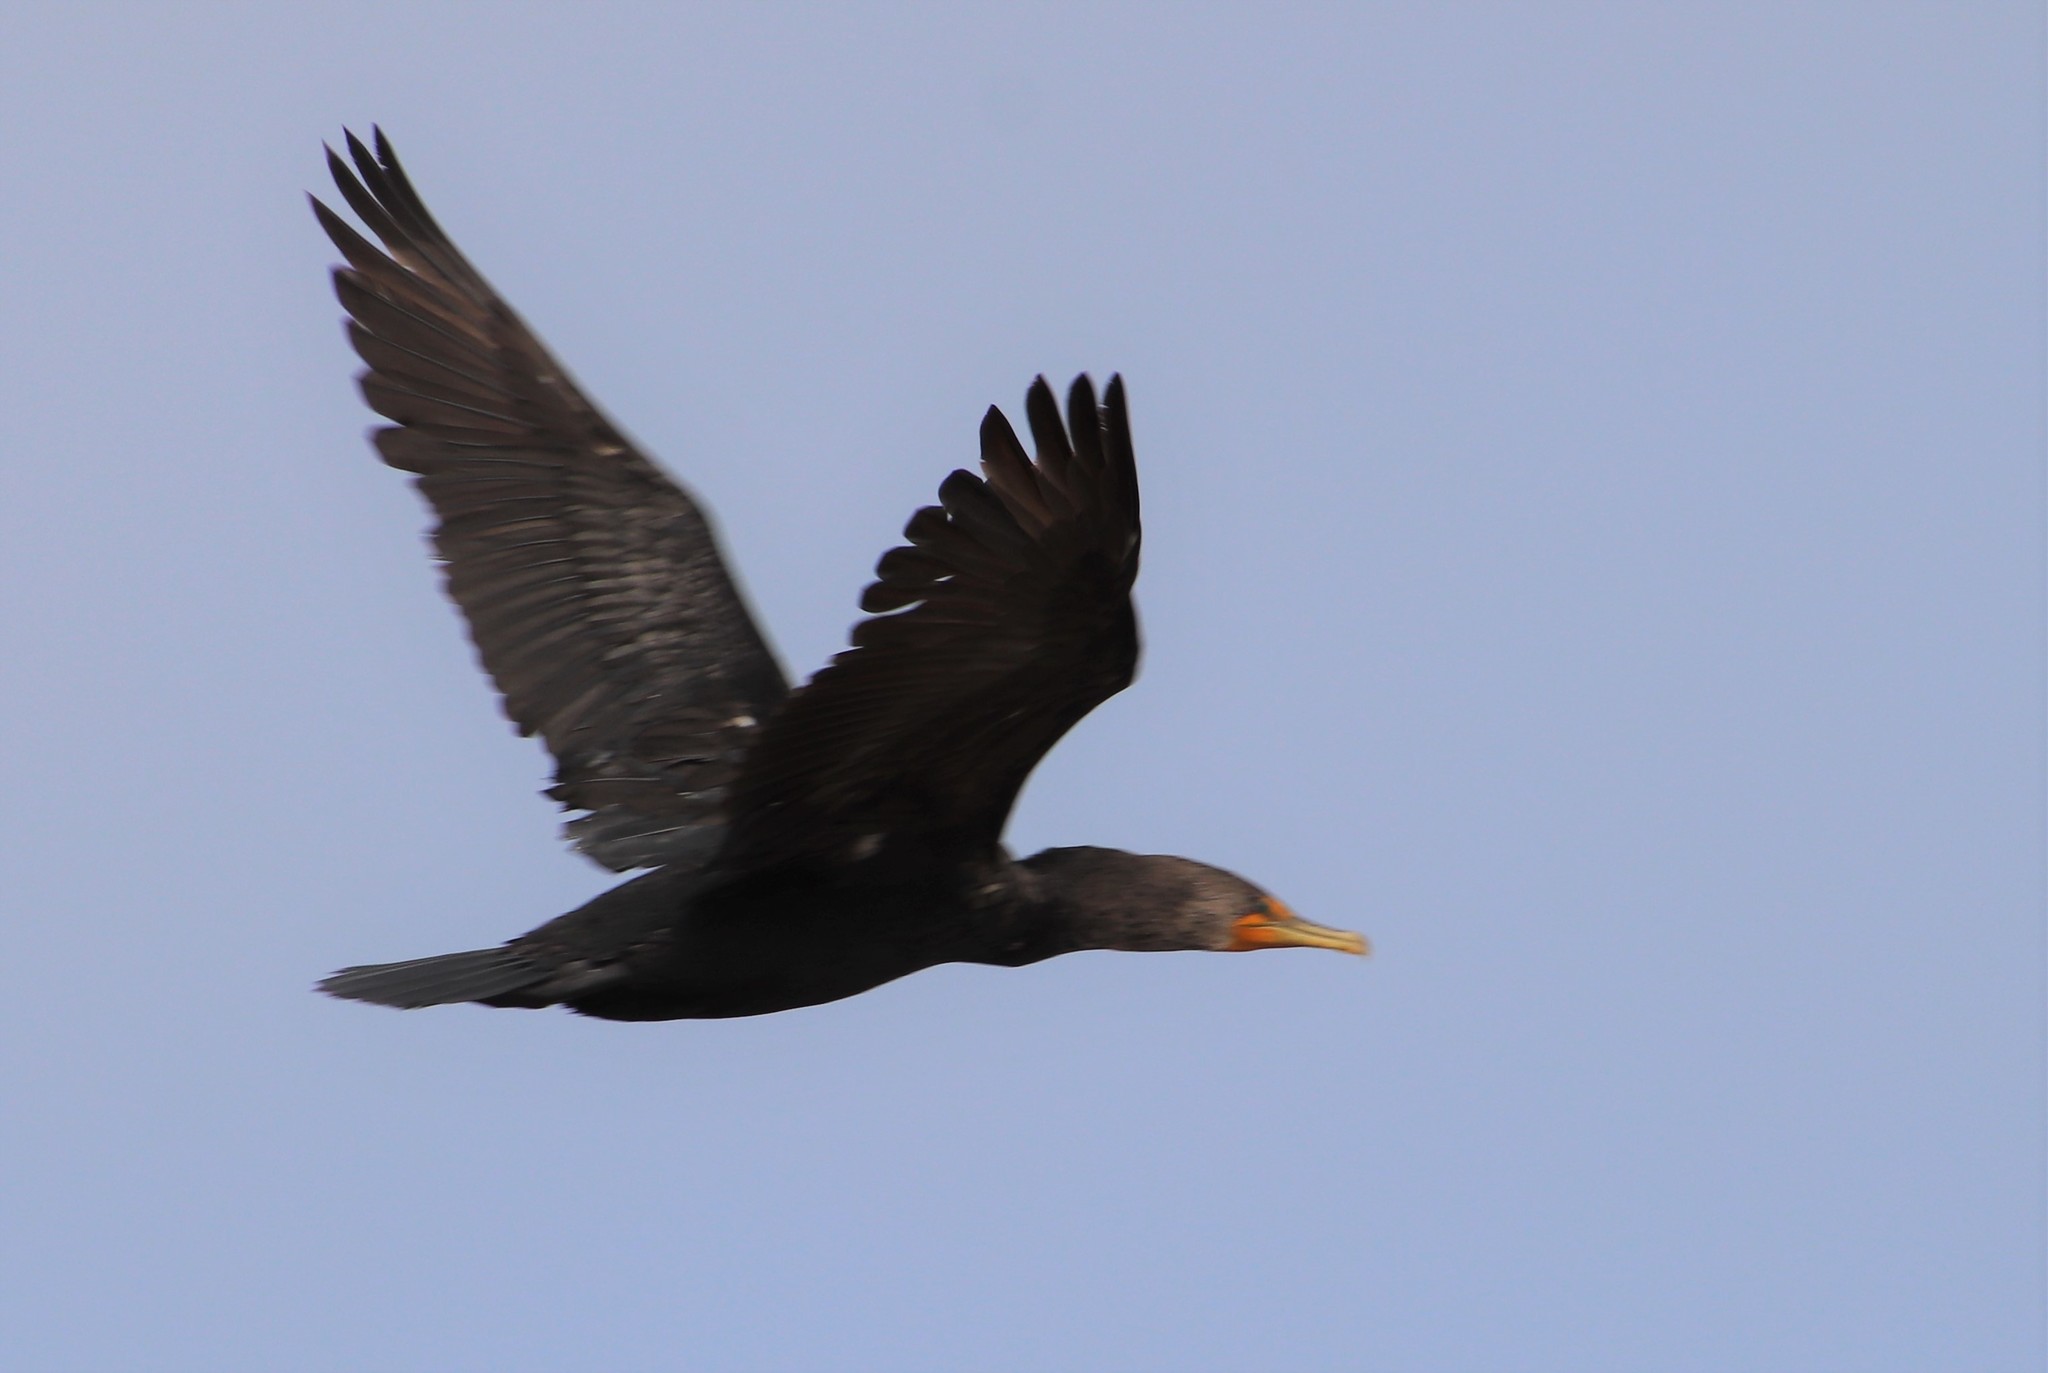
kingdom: Animalia
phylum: Chordata
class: Aves
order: Suliformes
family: Phalacrocoracidae
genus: Phalacrocorax
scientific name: Phalacrocorax auritus
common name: Double-crested cormorant
